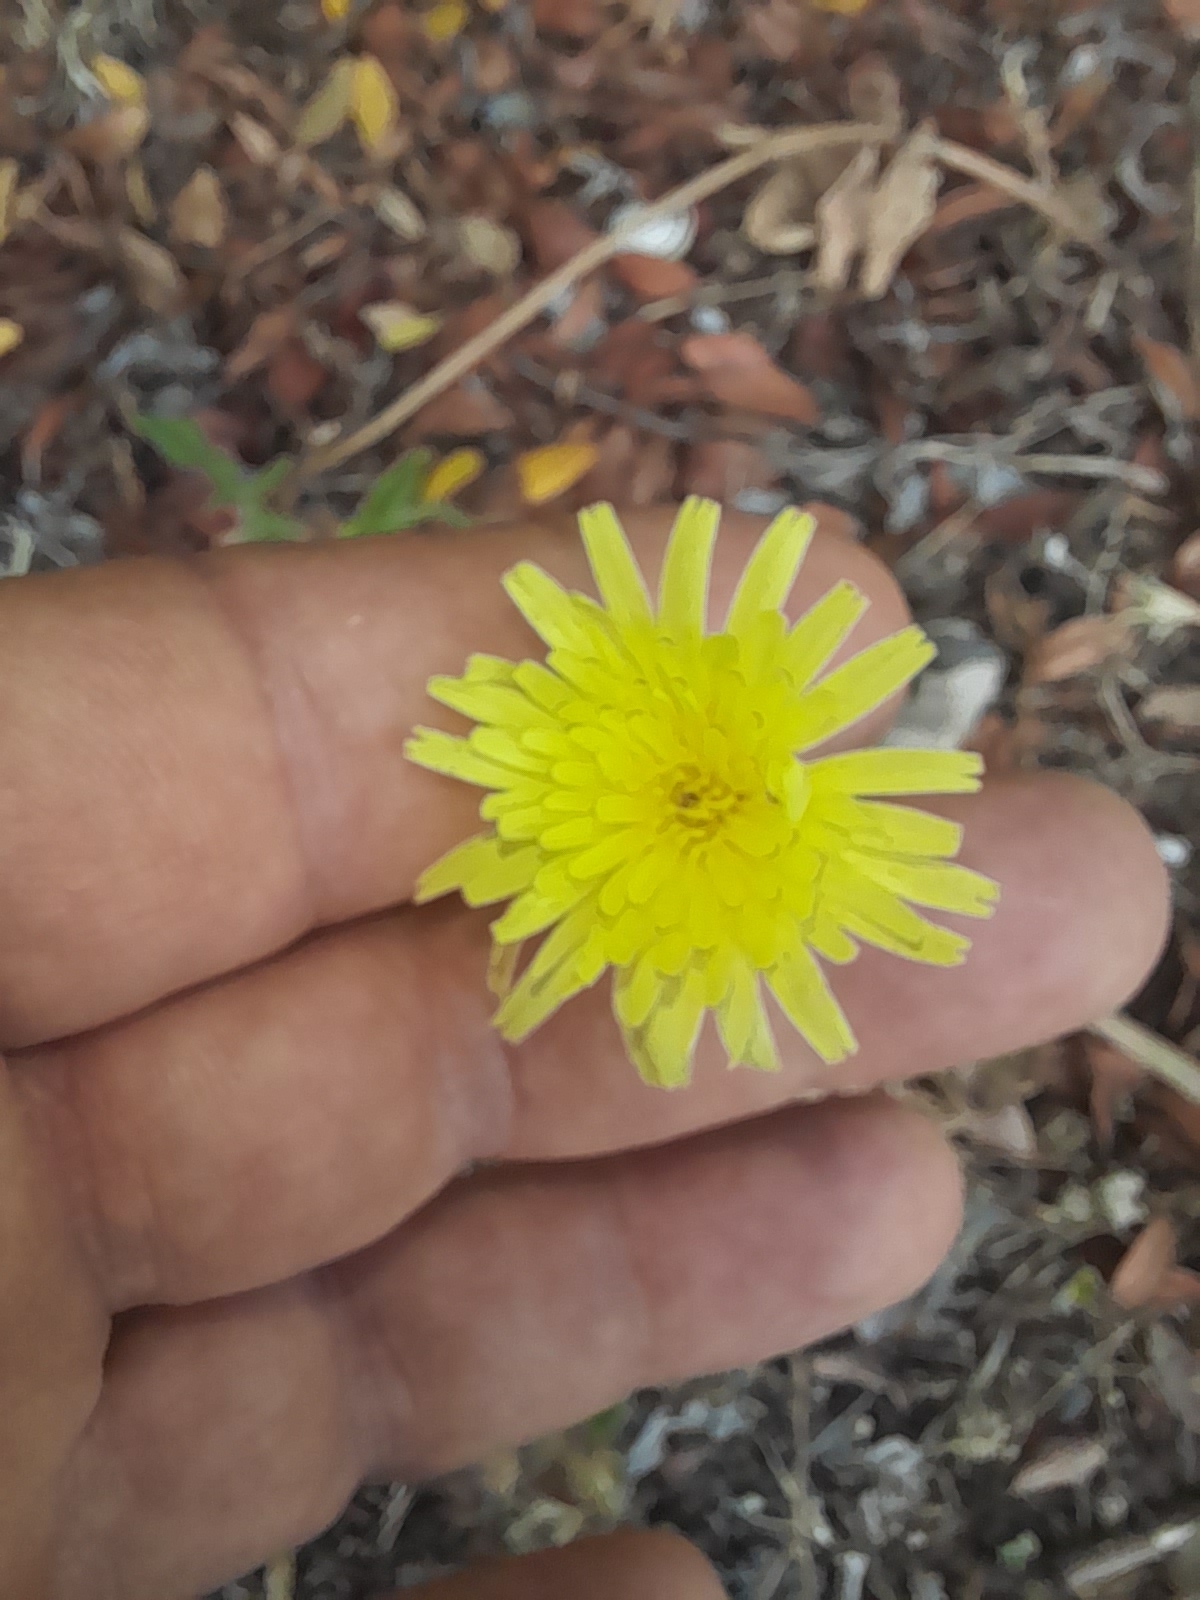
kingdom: Plantae
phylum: Tracheophyta
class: Magnoliopsida
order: Asterales
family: Asteraceae
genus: Urospermum
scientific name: Urospermum dalechampii
